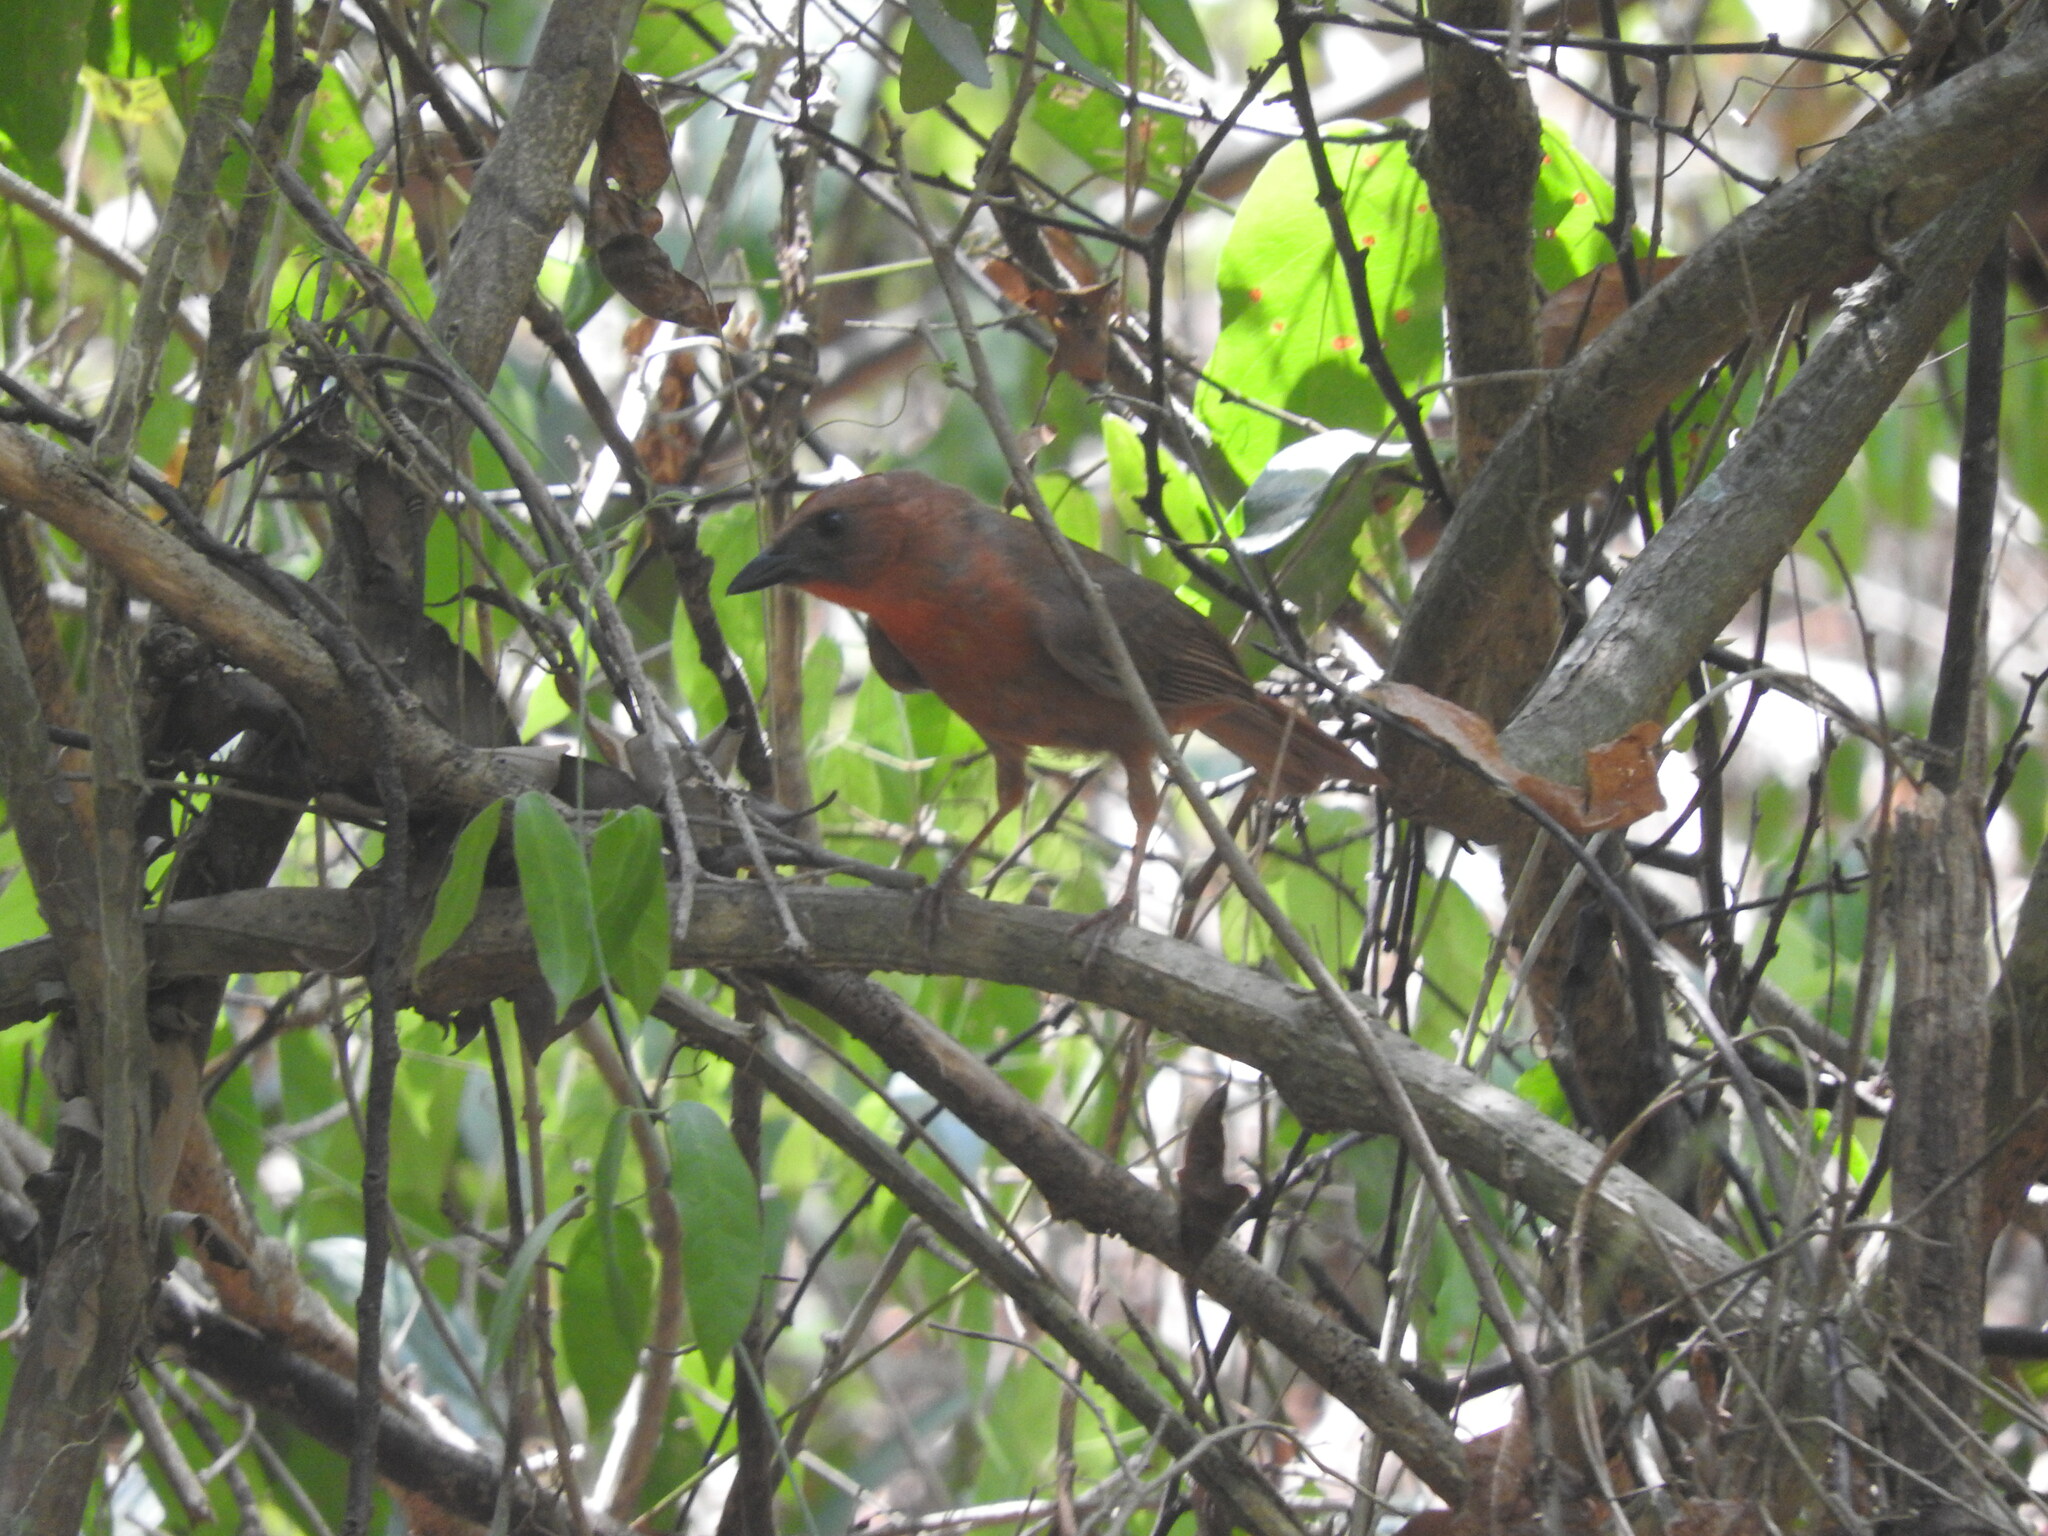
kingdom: Animalia
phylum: Chordata
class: Aves
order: Passeriformes
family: Cardinalidae
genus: Habia
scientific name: Habia fuscicauda
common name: Red-throated ant-tanager
